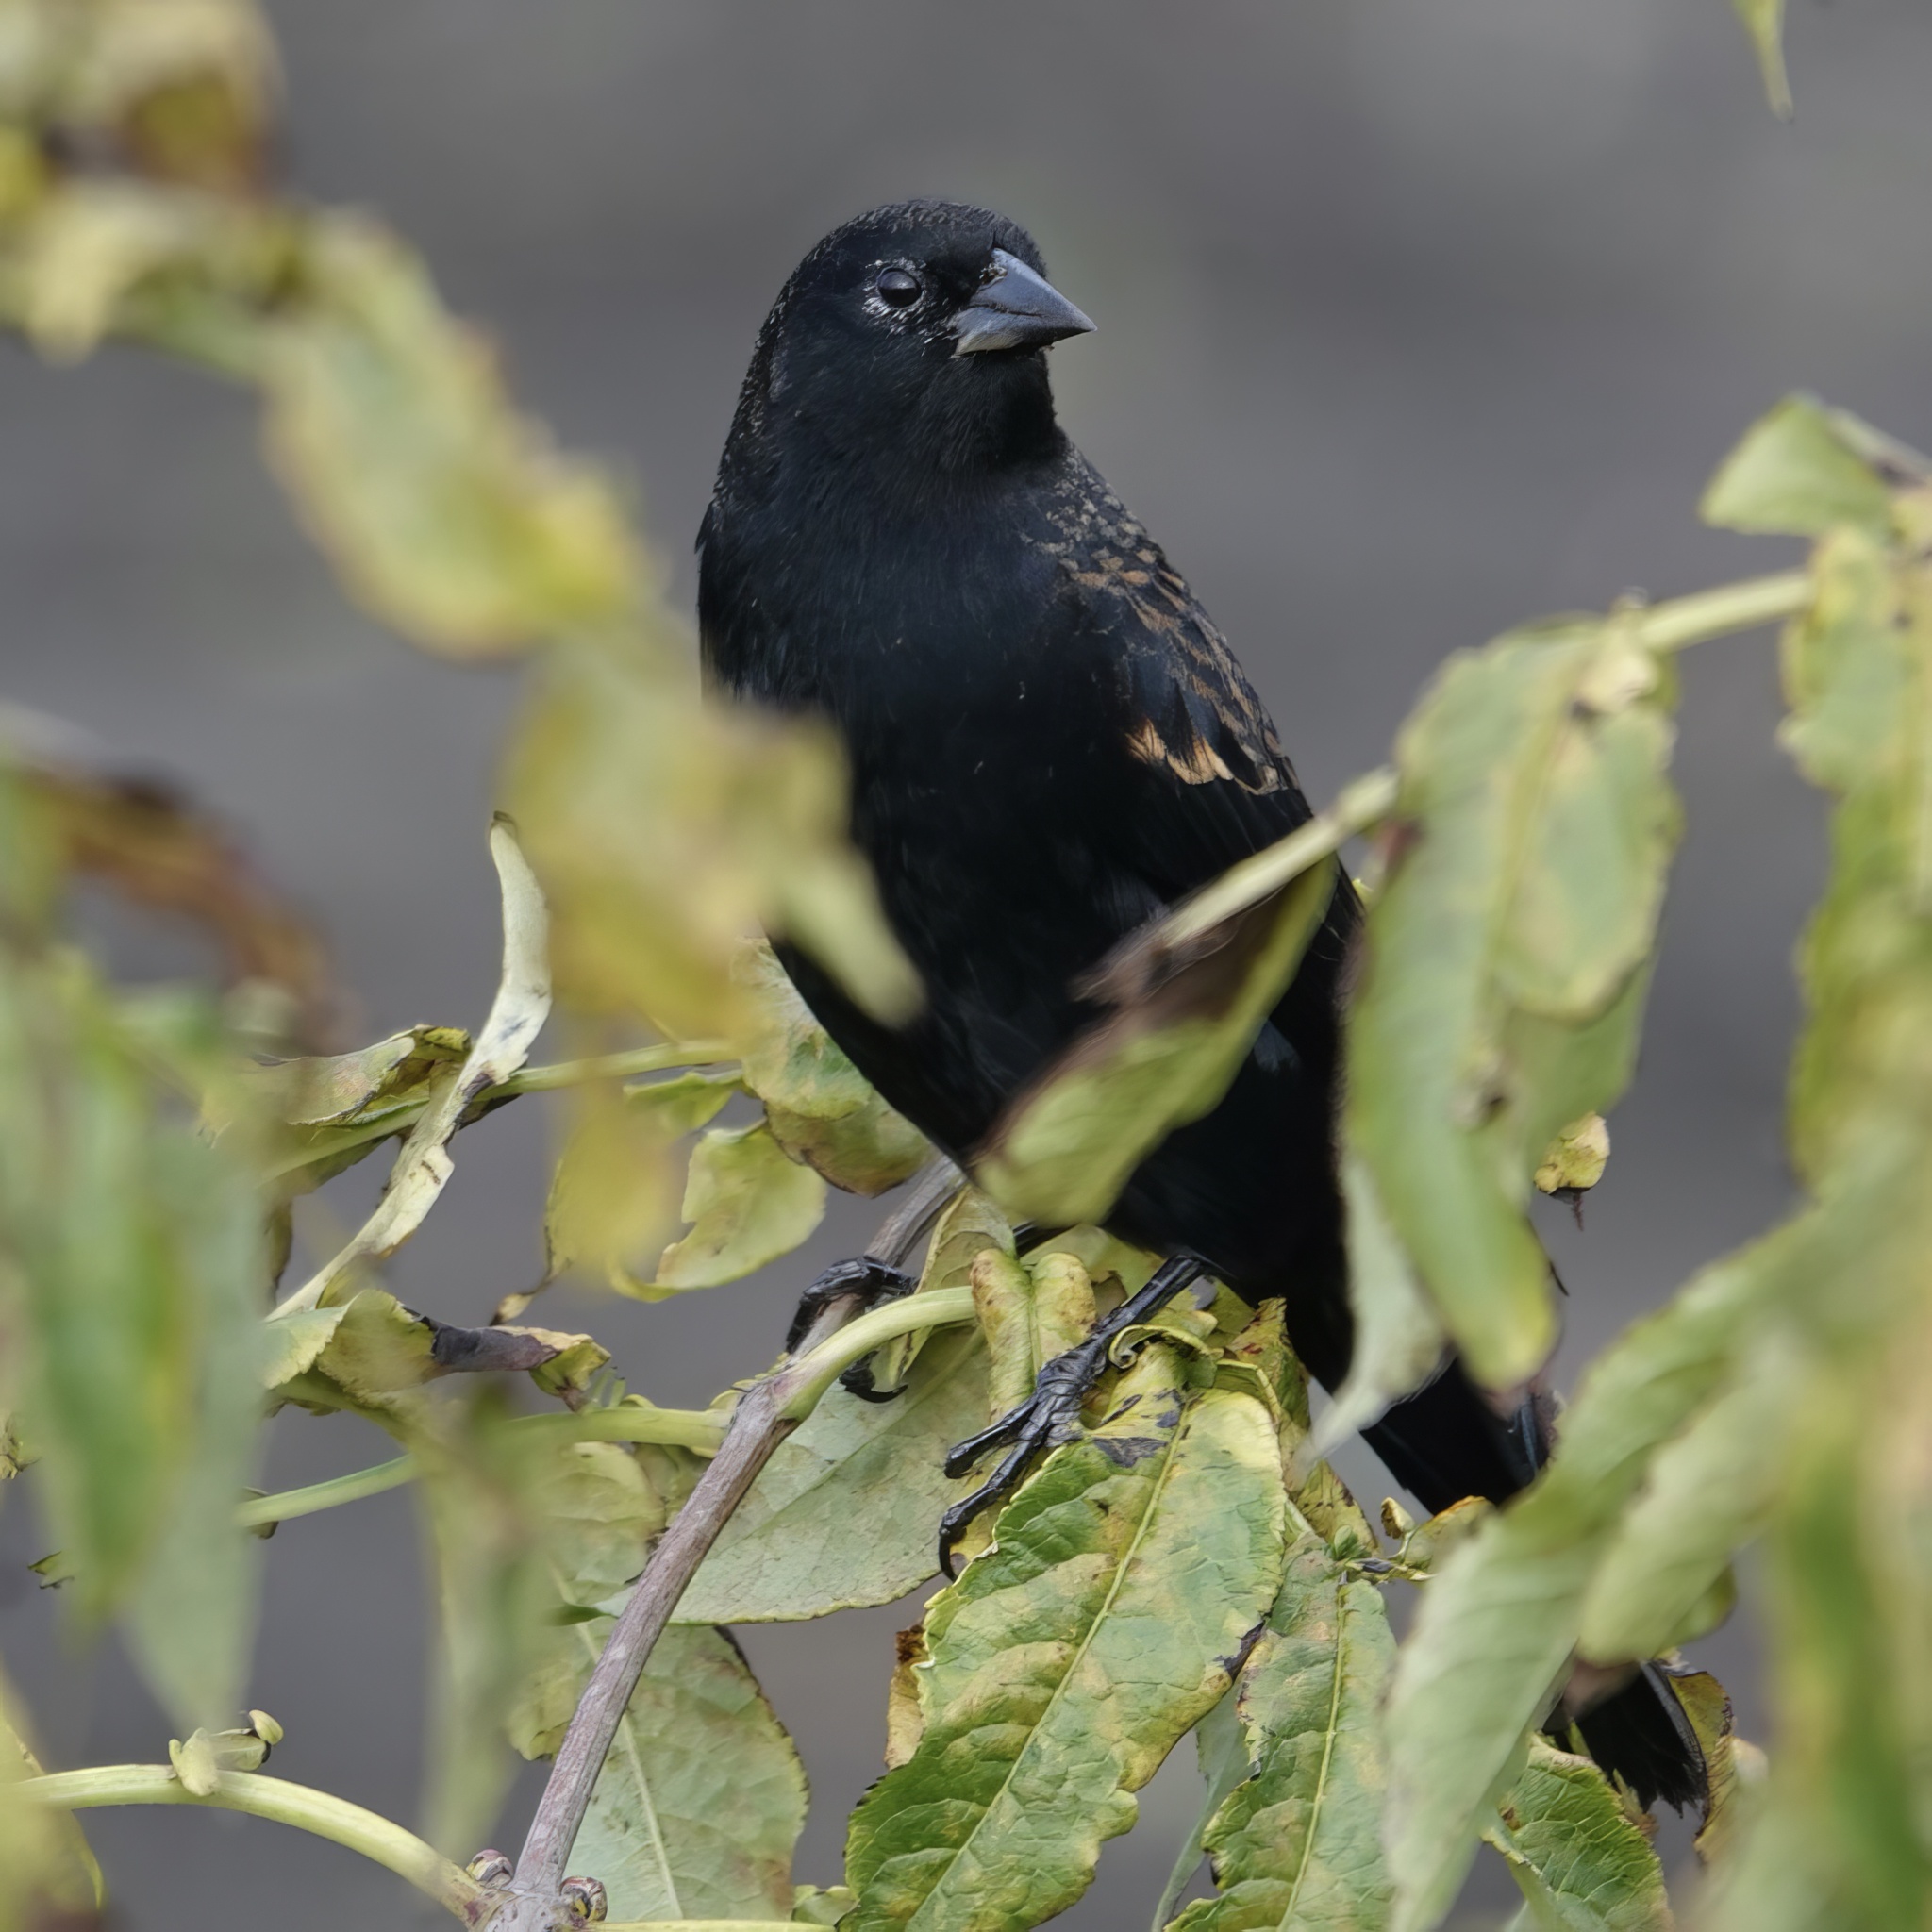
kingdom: Animalia
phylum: Chordata
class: Aves
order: Passeriformes
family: Icteridae
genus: Agelaius
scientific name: Agelaius phoeniceus
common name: Red-winged blackbird
